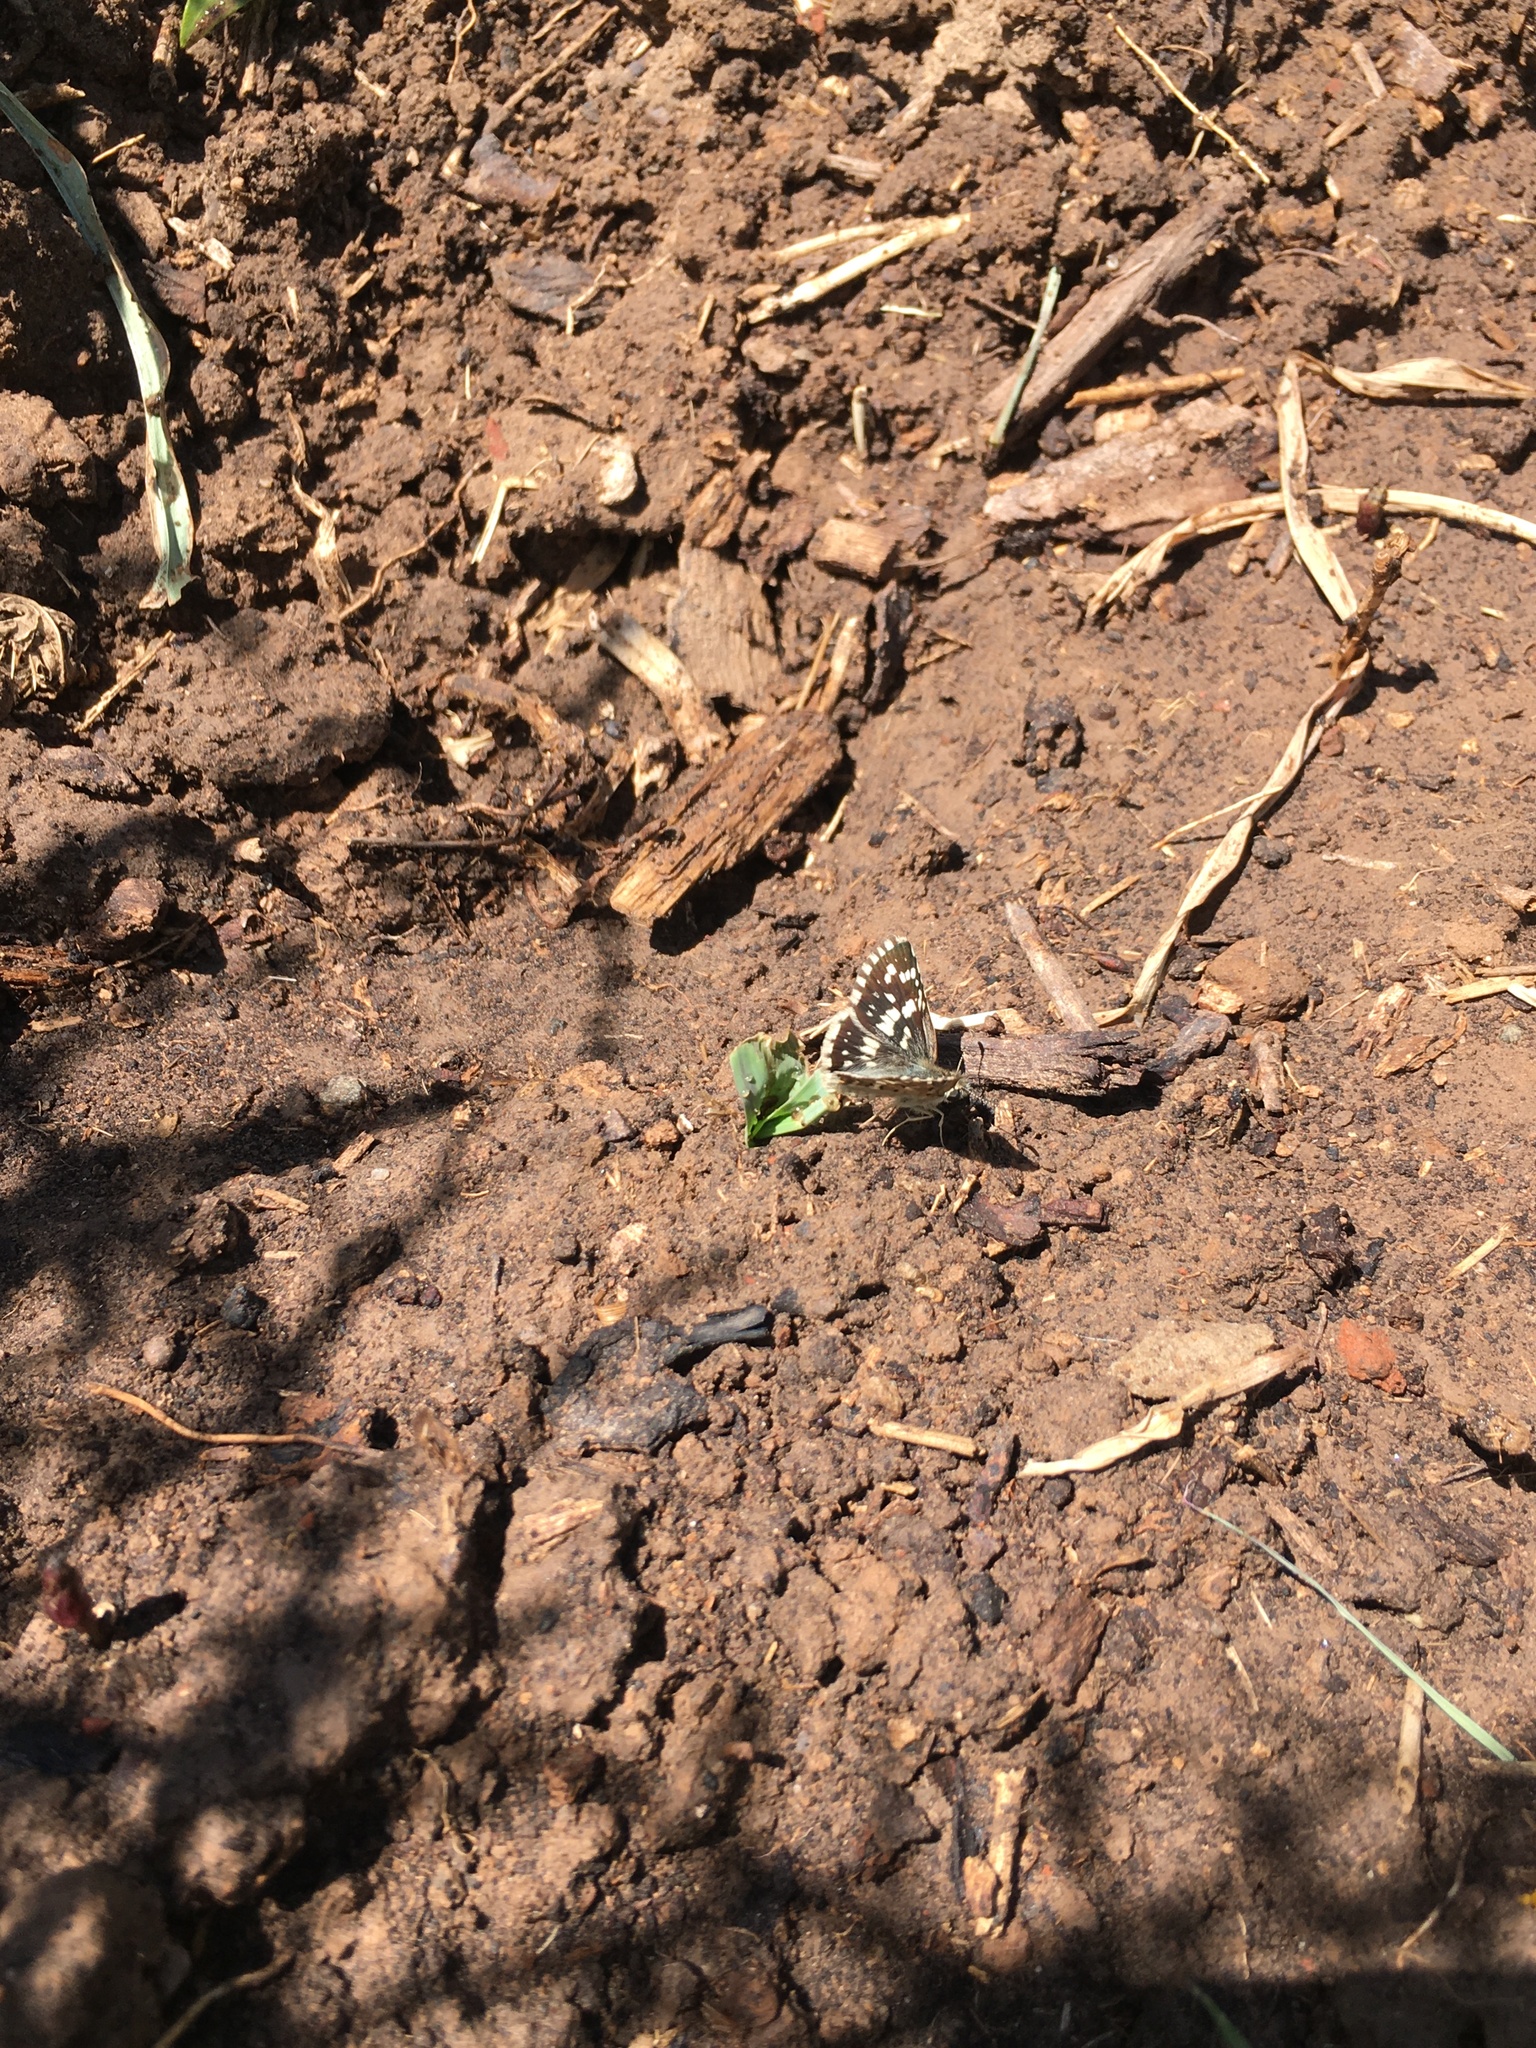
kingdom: Animalia
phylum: Arthropoda
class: Insecta
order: Lepidoptera
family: Hesperiidae
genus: Burnsius
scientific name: Burnsius orcynoides
